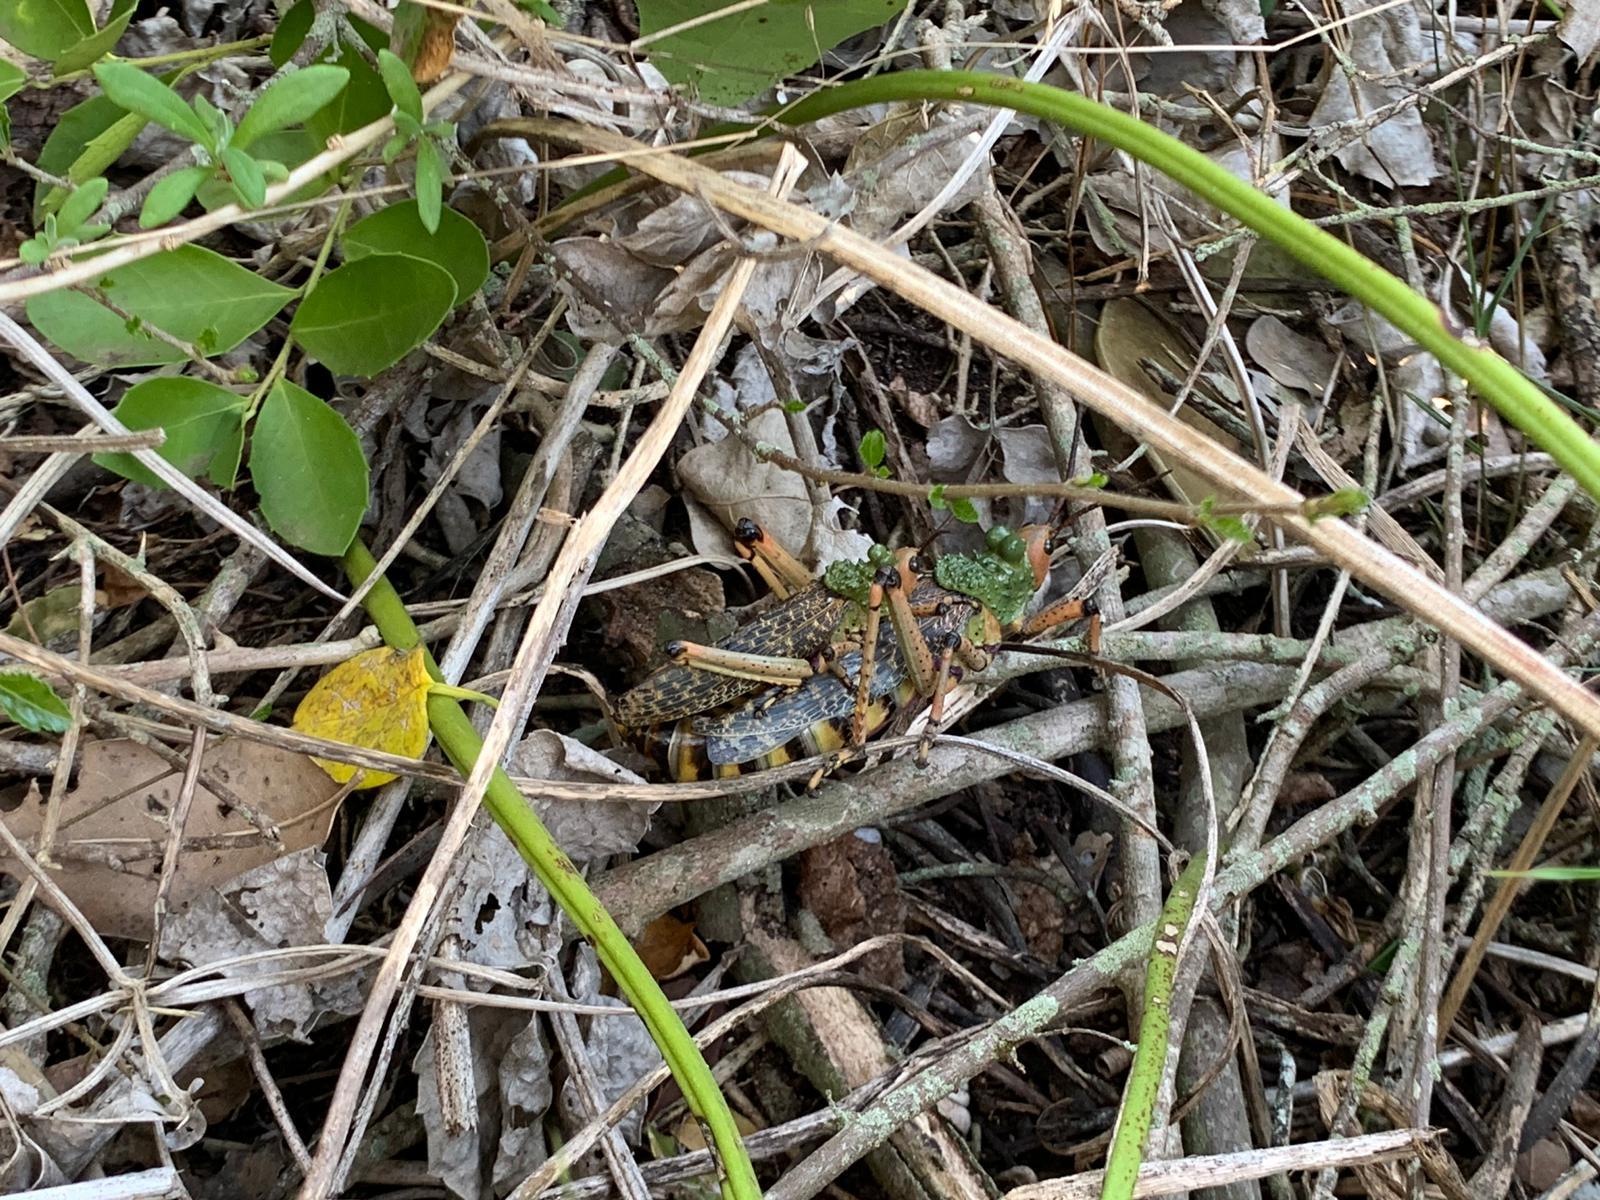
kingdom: Animalia
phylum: Arthropoda
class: Insecta
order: Orthoptera
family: Pyrgomorphidae
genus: Phymateus
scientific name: Phymateus leprosus
